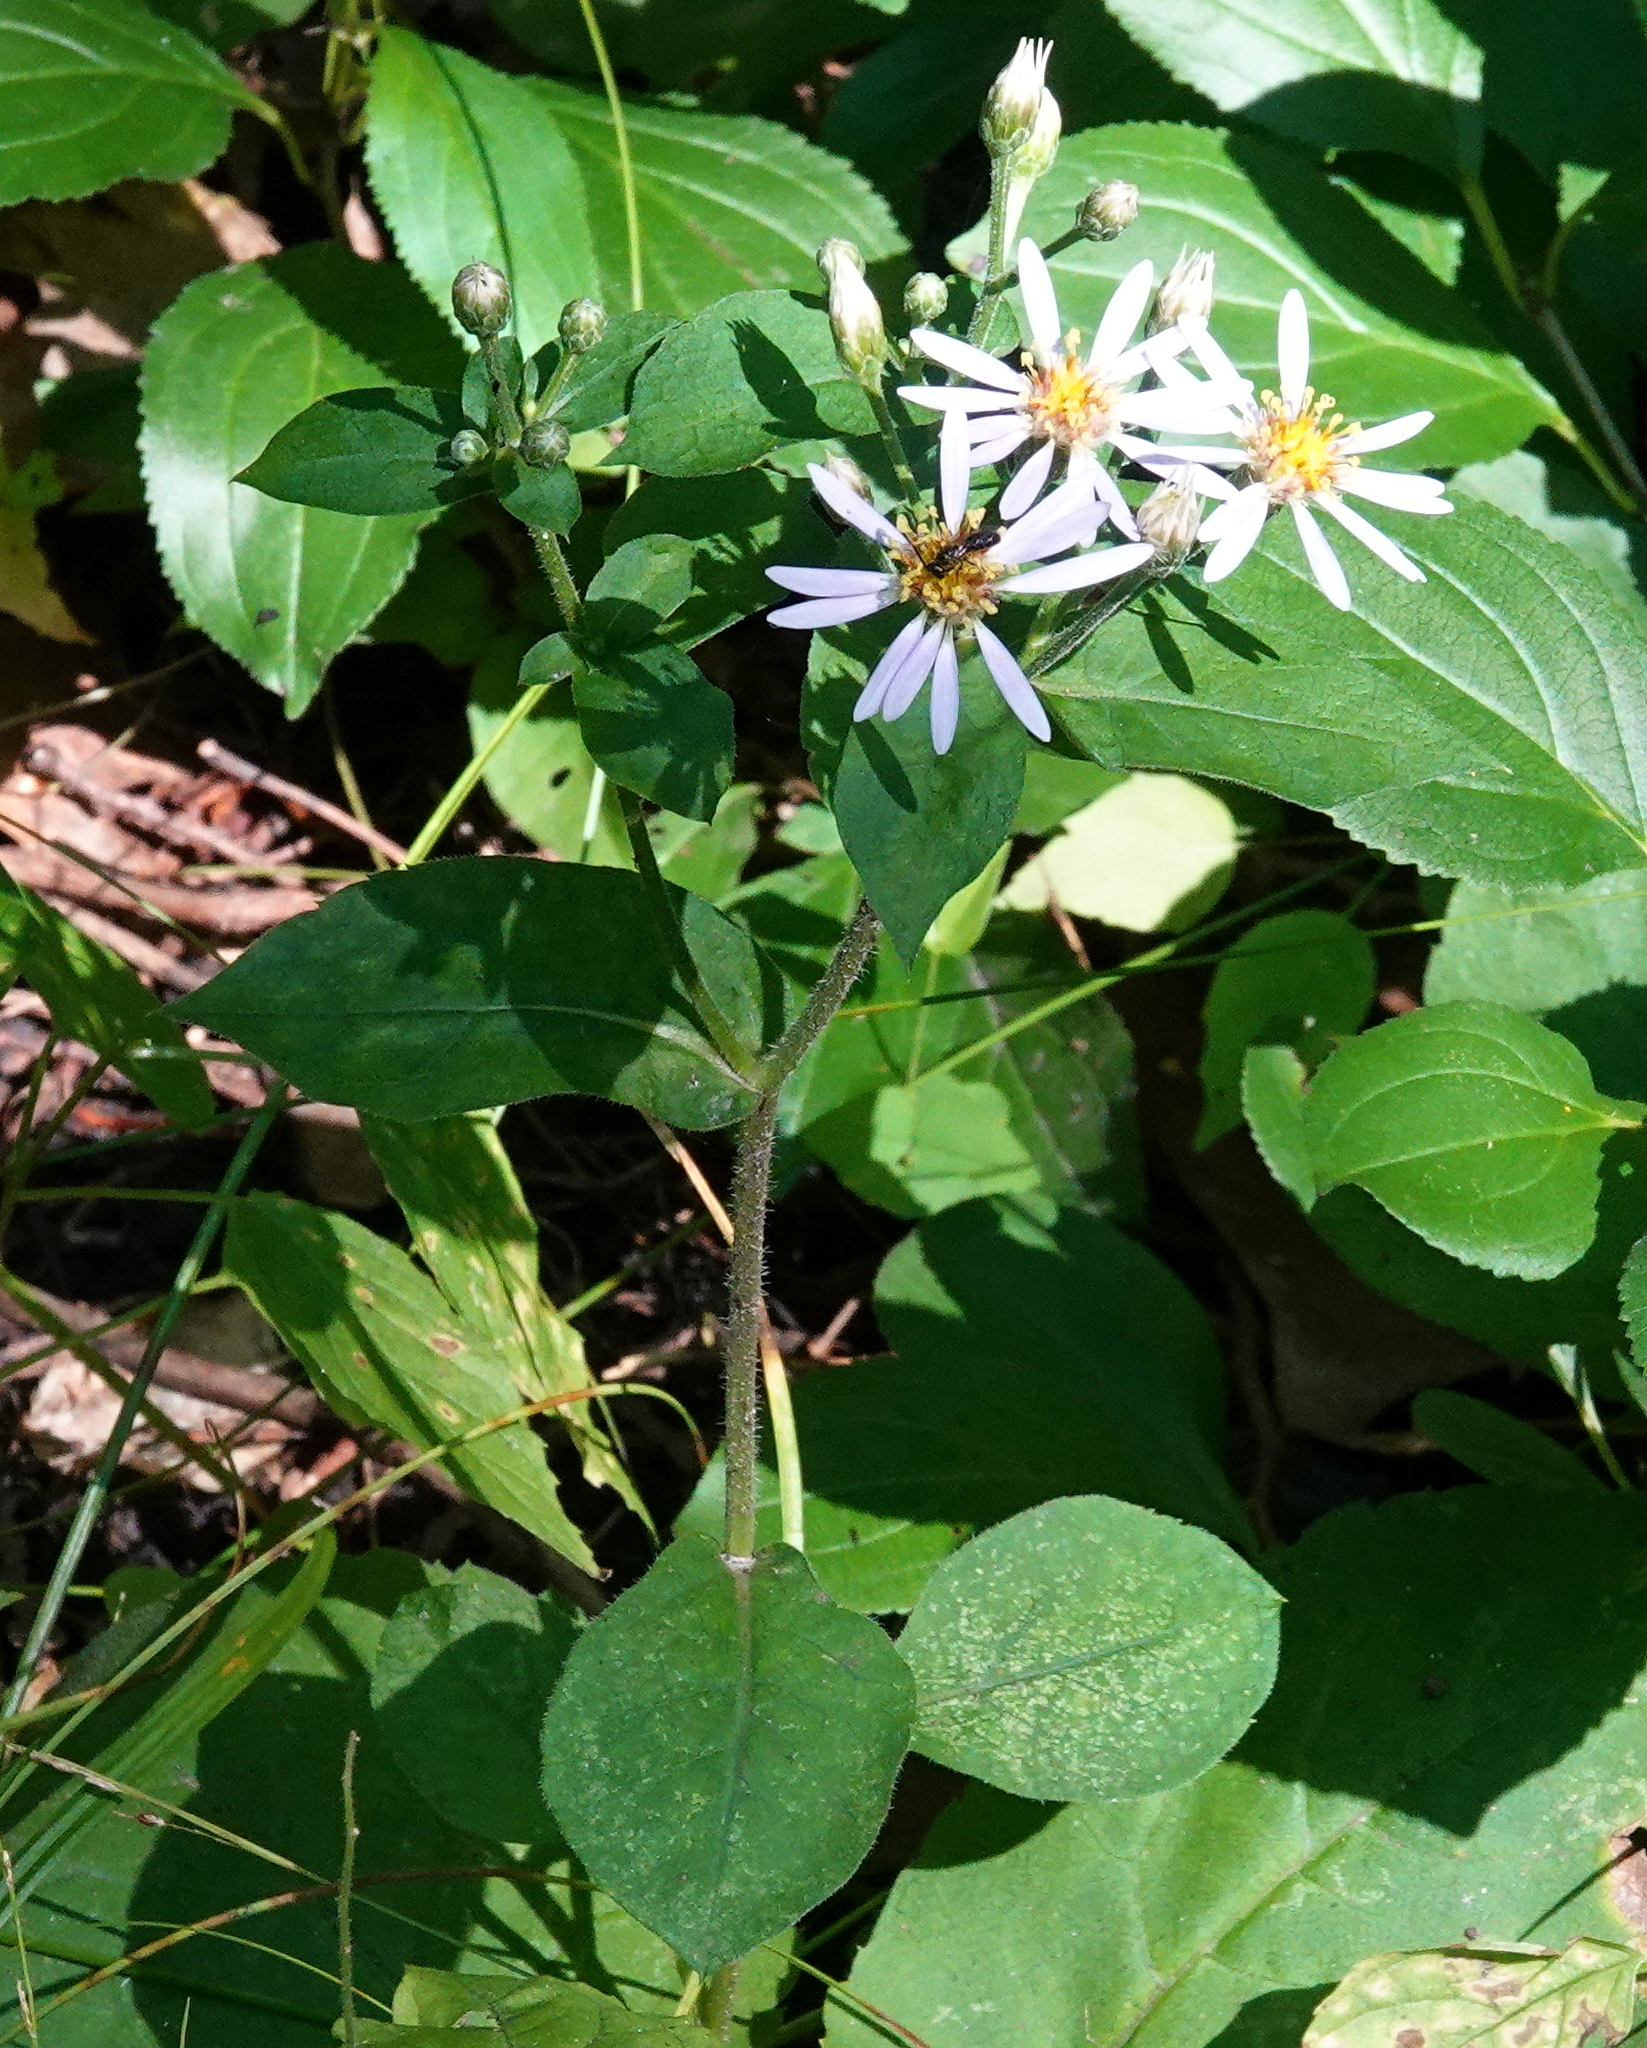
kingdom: Plantae
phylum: Tracheophyta
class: Magnoliopsida
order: Asterales
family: Asteraceae
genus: Eurybia
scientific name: Eurybia macrophylla
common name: Big-leaved aster
